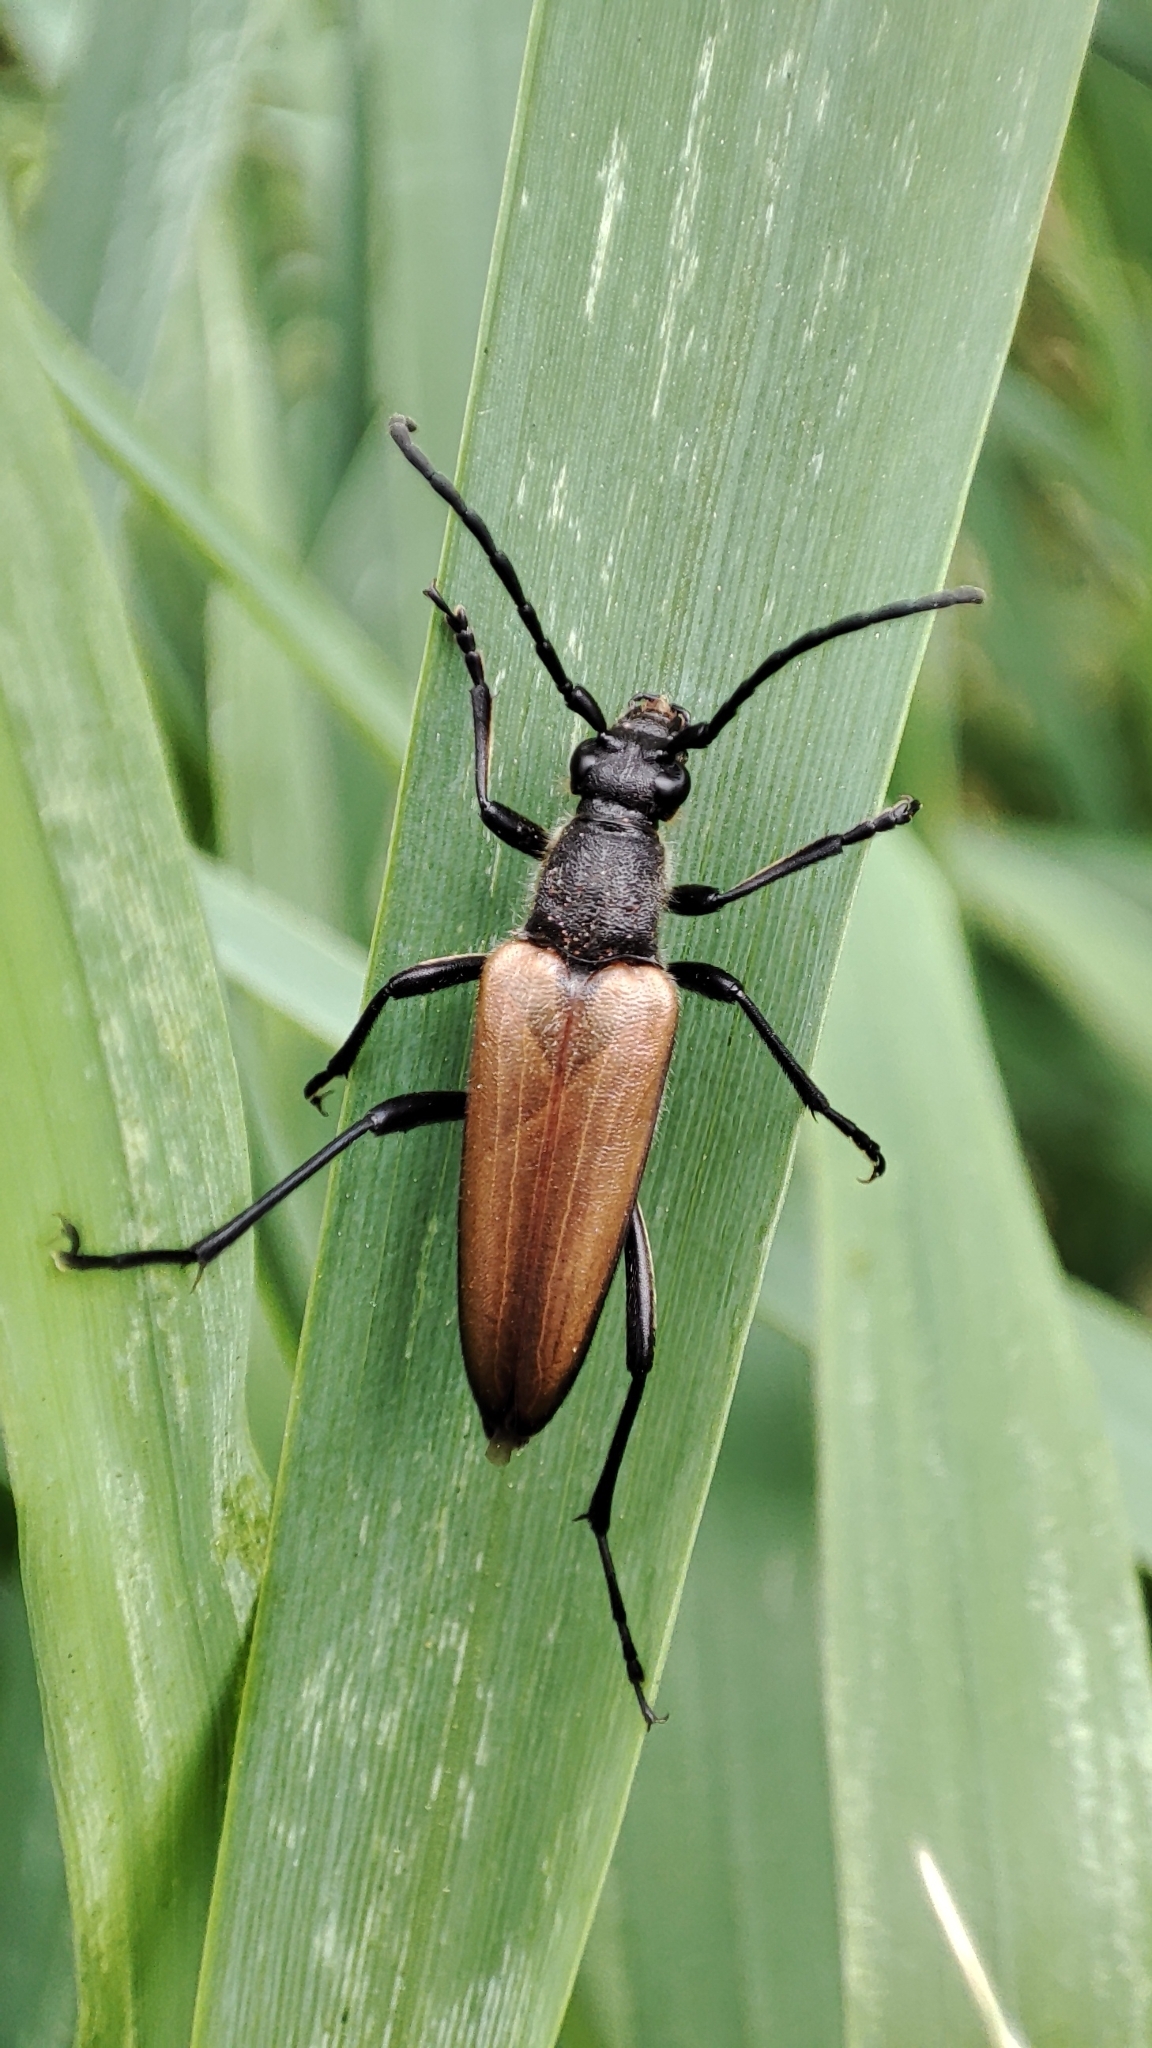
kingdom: Animalia
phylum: Arthropoda
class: Insecta
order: Coleoptera
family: Cerambycidae
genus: Lepturalia
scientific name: Lepturalia nigripes
